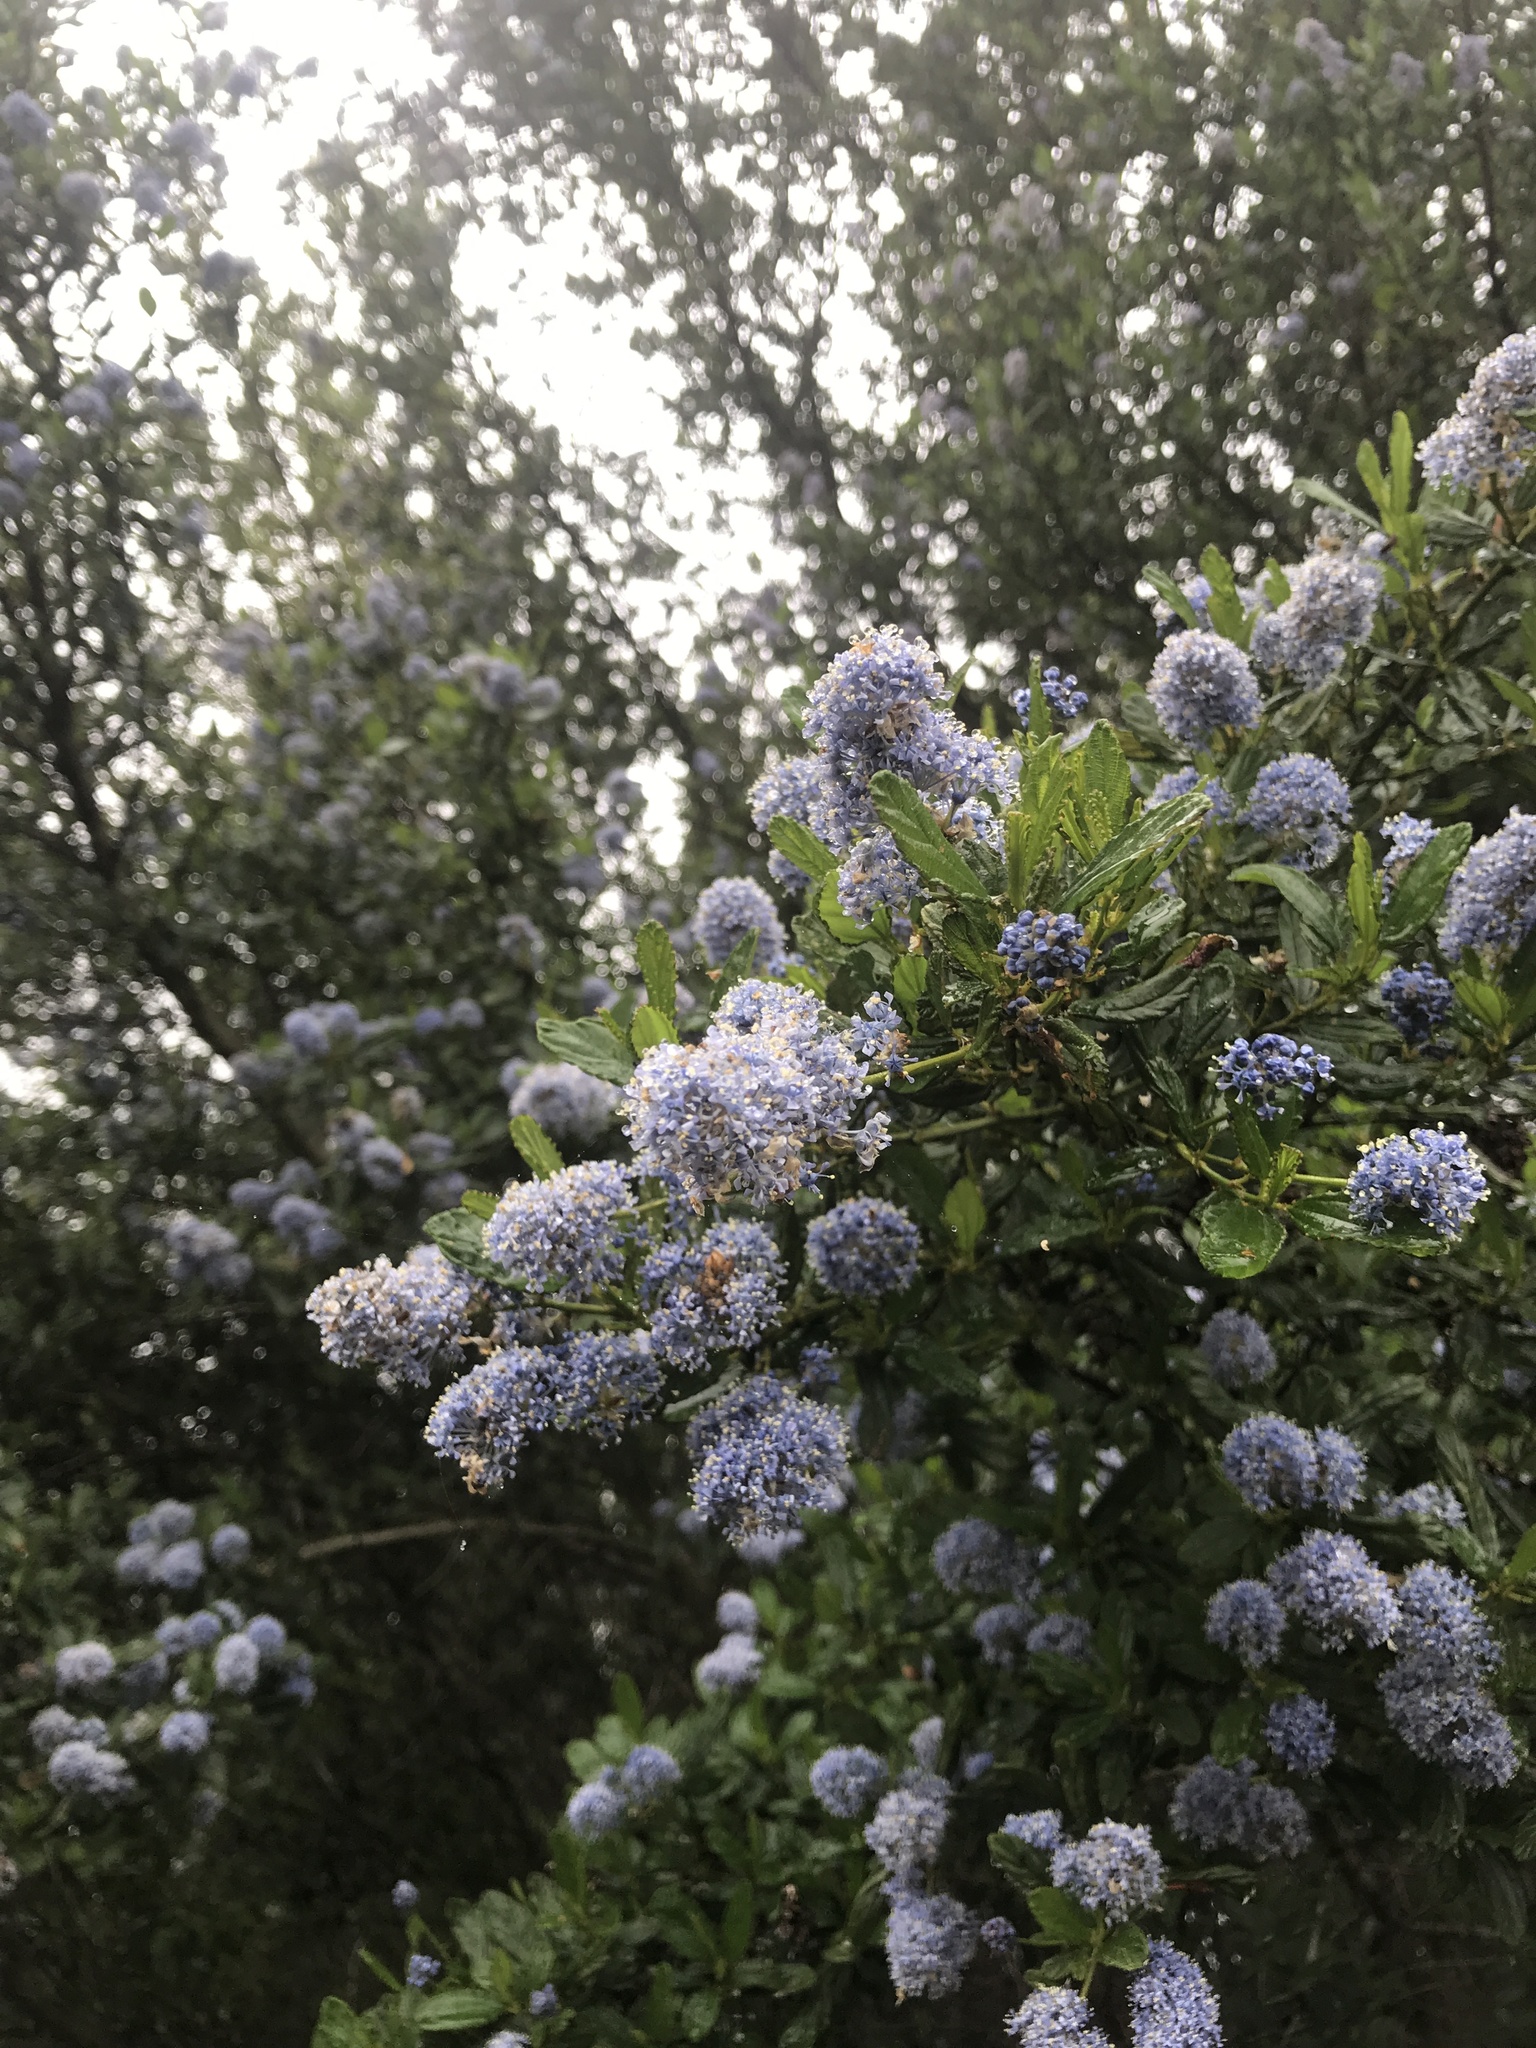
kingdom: Plantae
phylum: Tracheophyta
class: Magnoliopsida
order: Rosales
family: Rhamnaceae
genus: Ceanothus
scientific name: Ceanothus thyrsiflorus
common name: California-lilac
